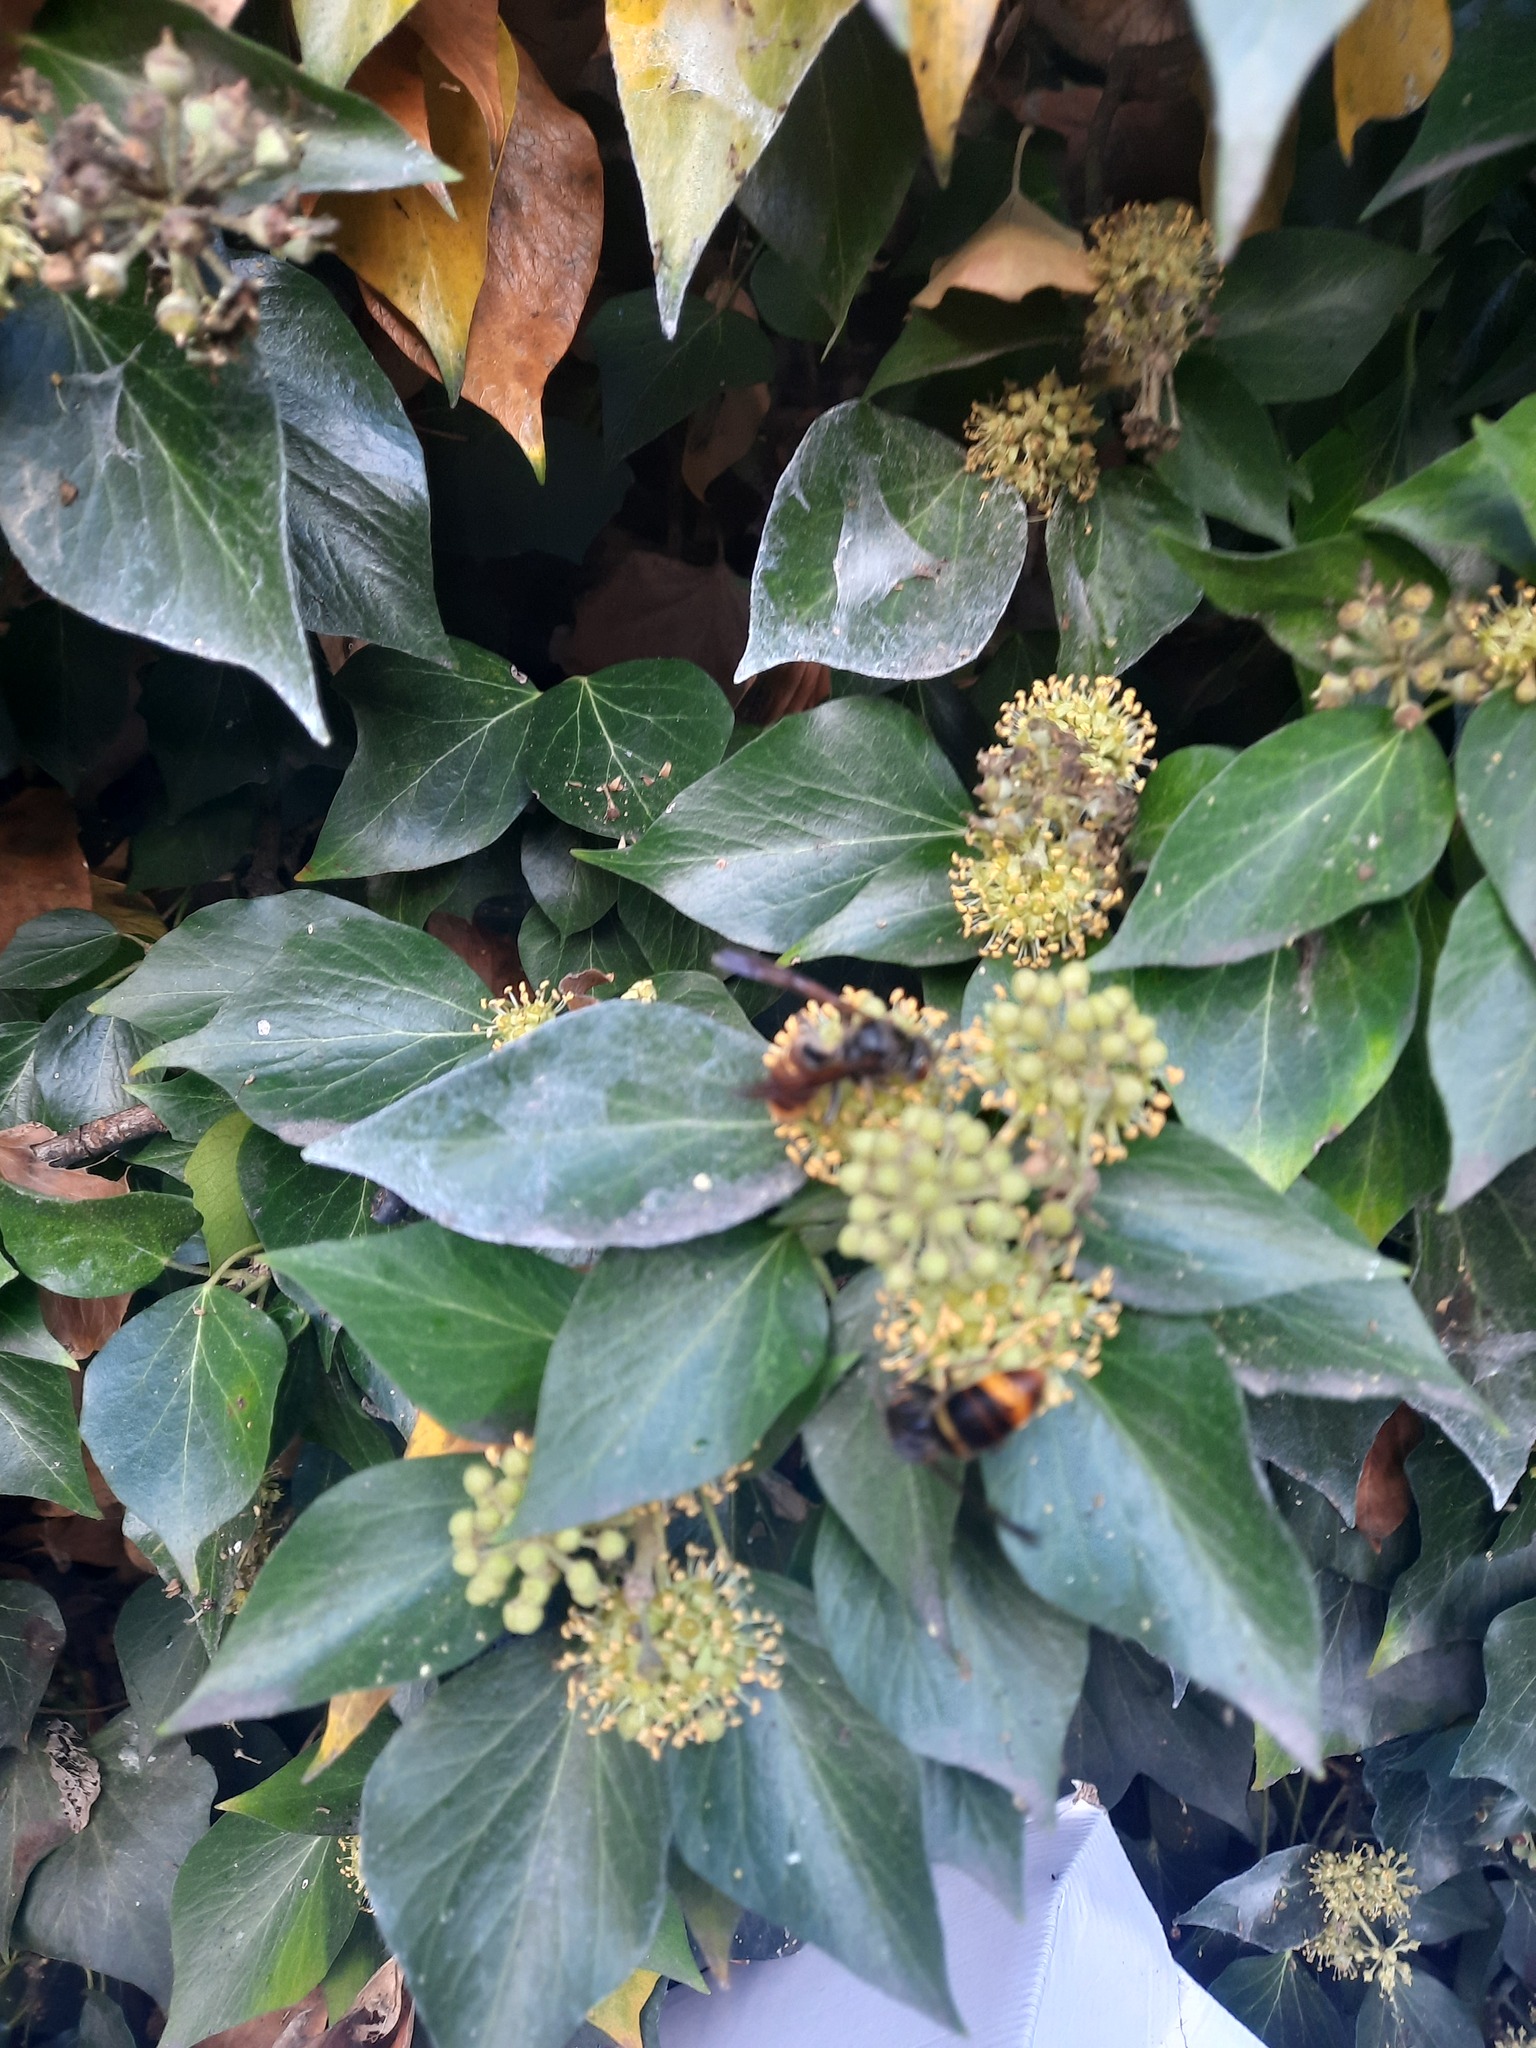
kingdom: Animalia
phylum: Arthropoda
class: Insecta
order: Hymenoptera
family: Vespidae
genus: Vespa
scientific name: Vespa velutina
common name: Asian hornet
